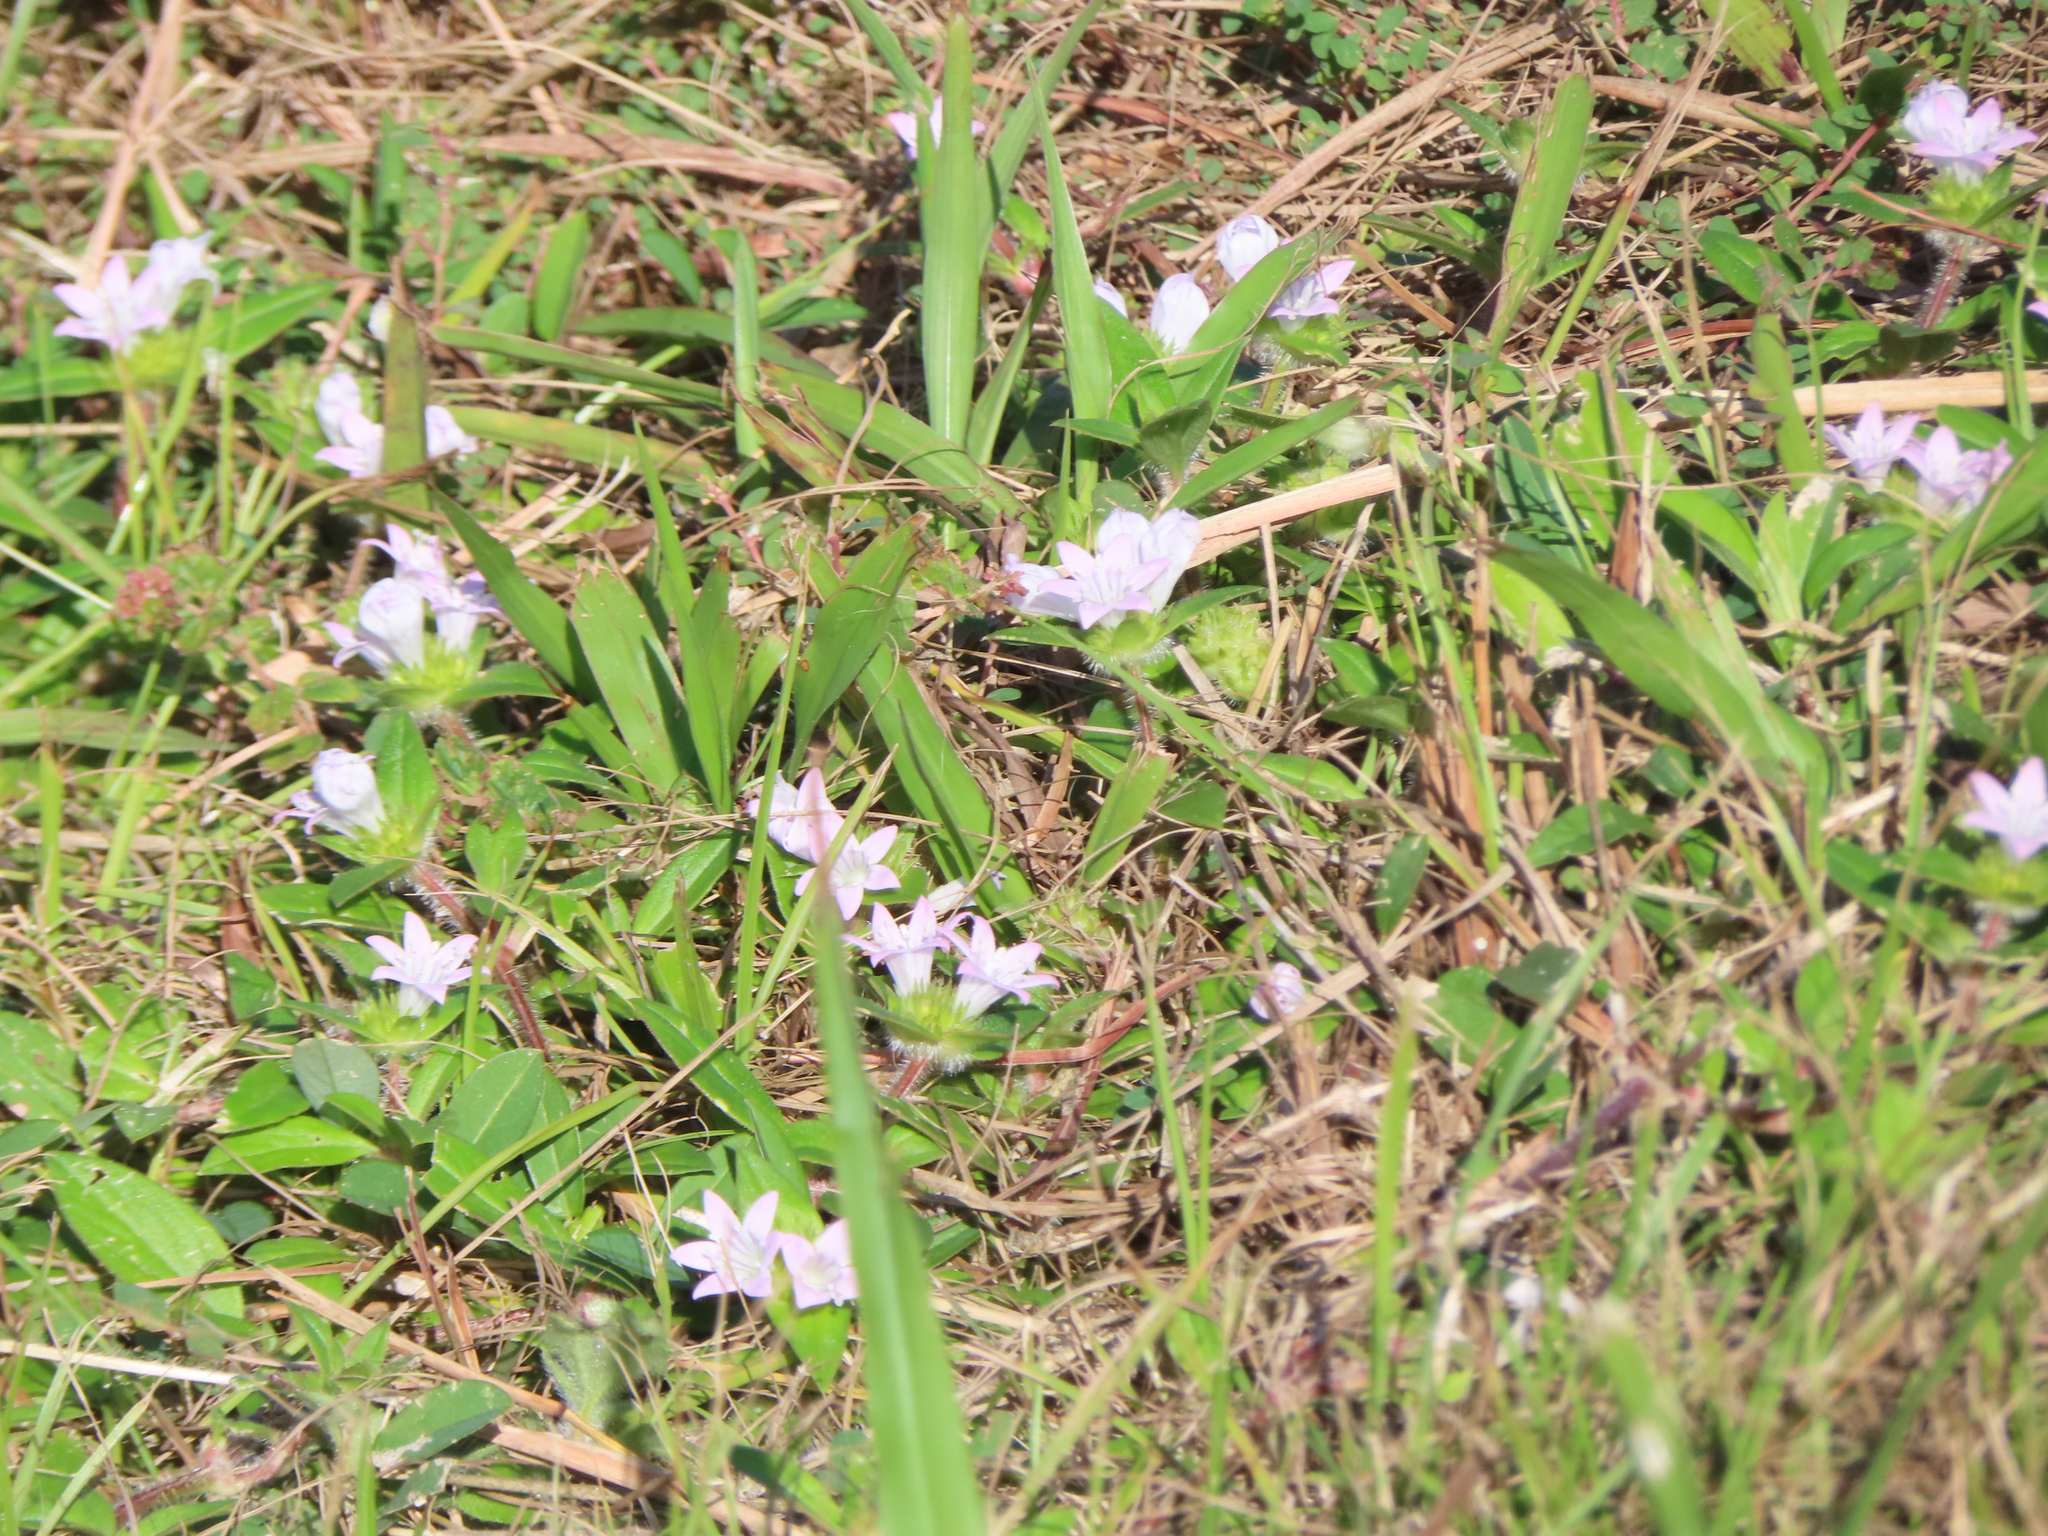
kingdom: Plantae
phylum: Tracheophyta
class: Magnoliopsida
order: Gentianales
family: Rubiaceae
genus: Richardia
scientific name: Richardia grandiflora
